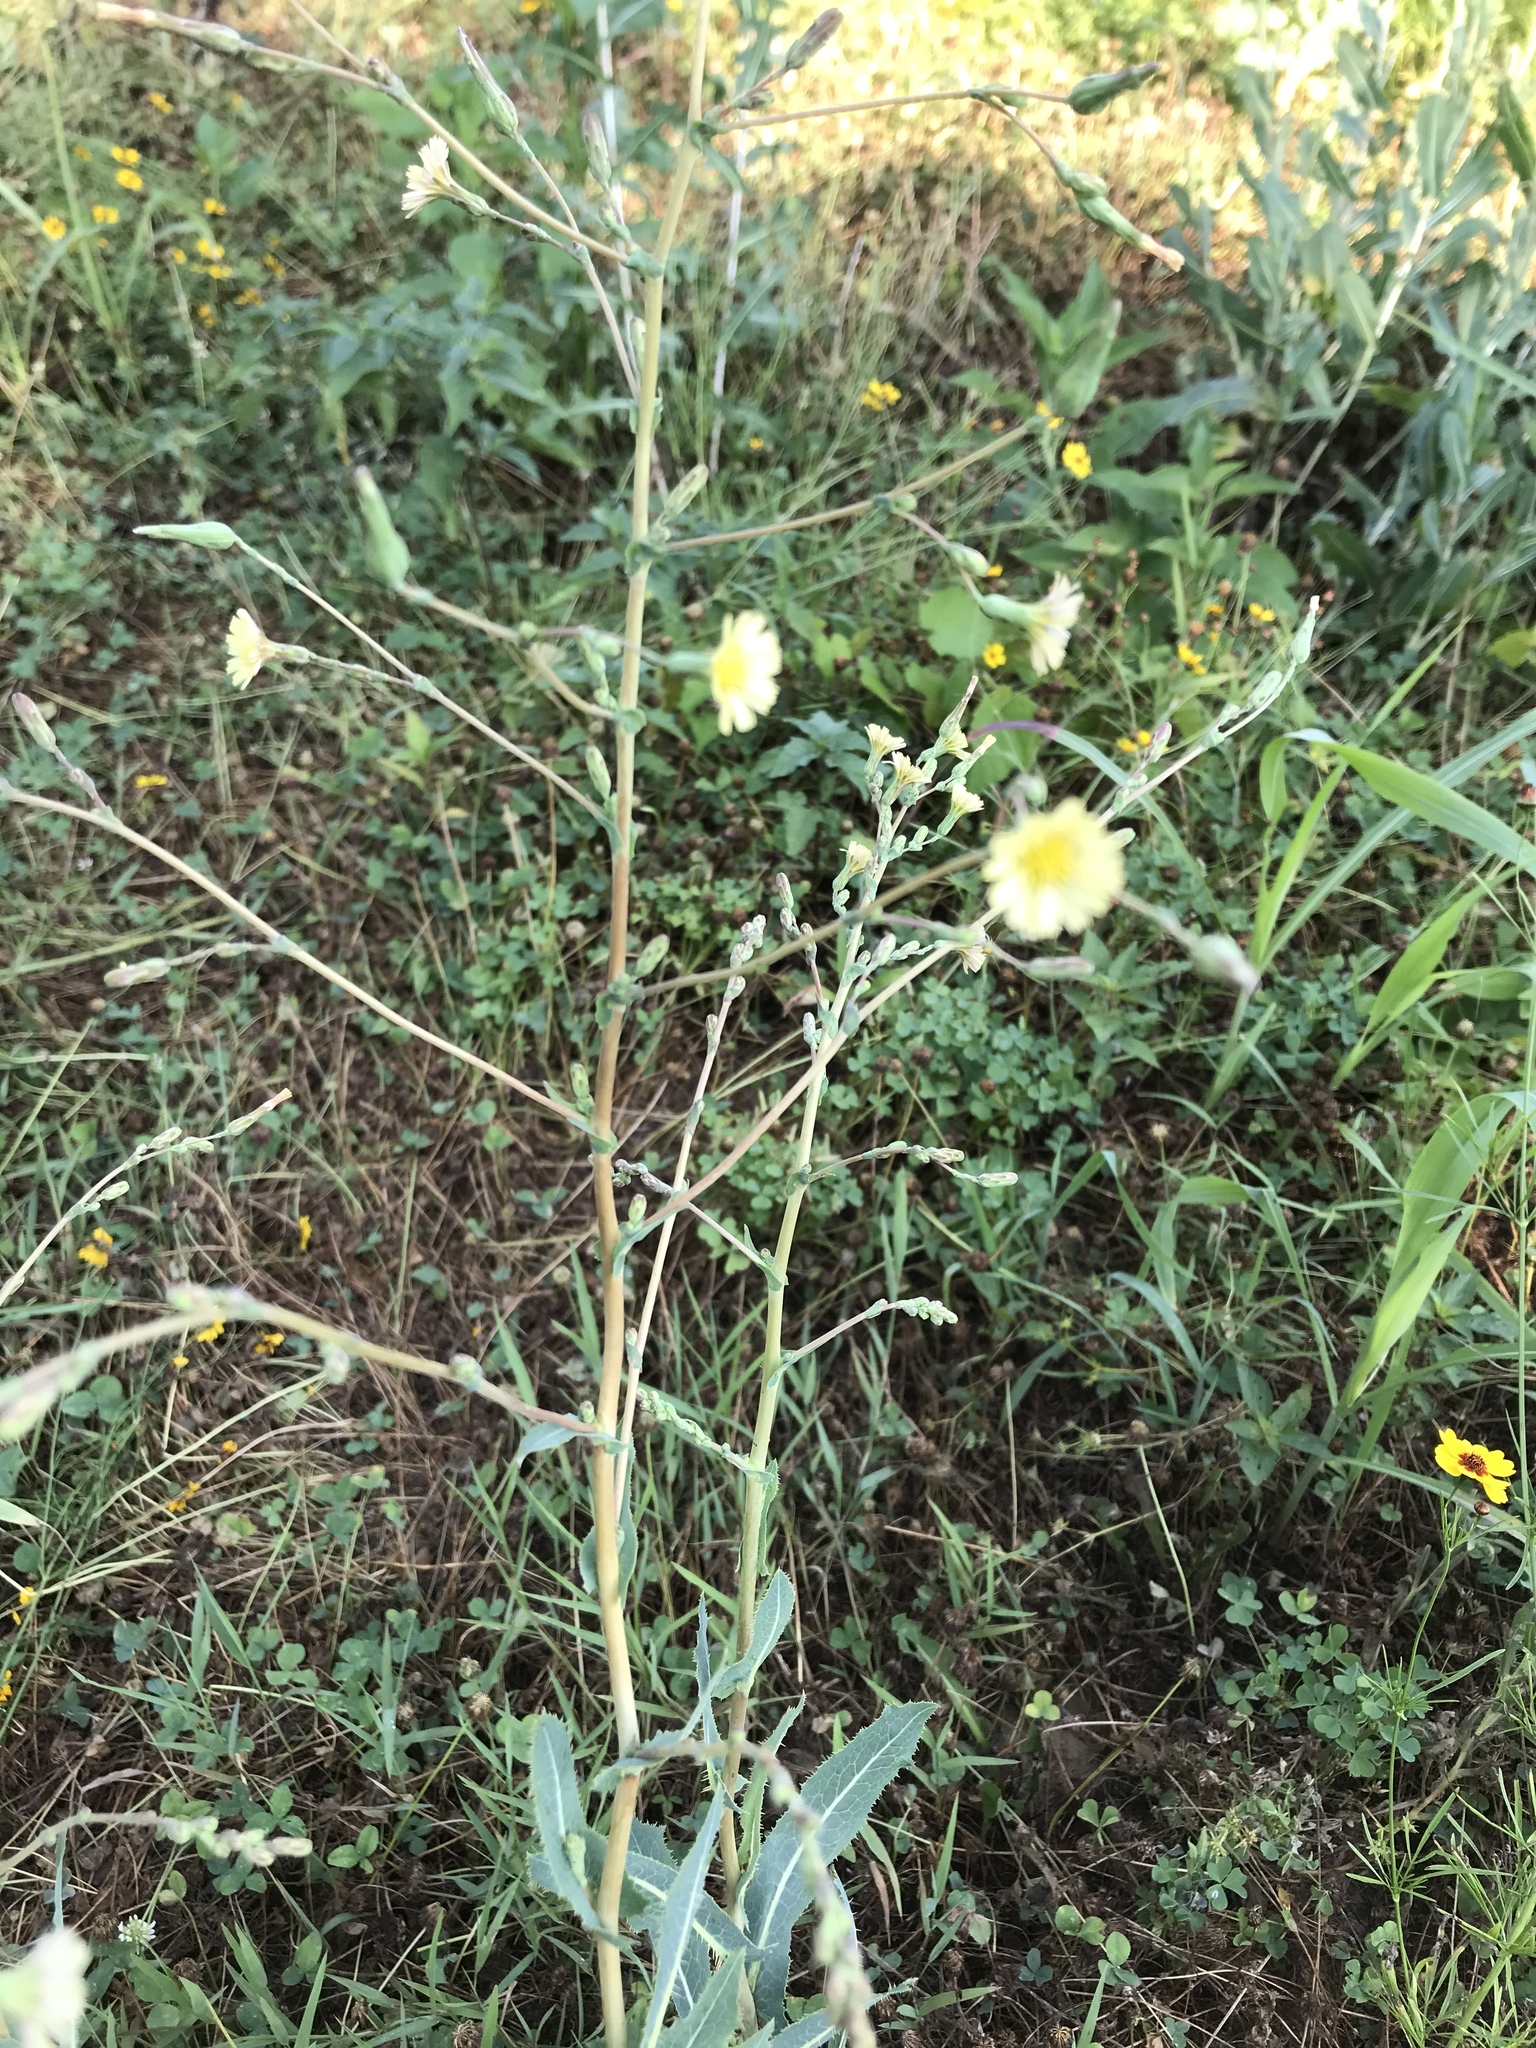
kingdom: Plantae
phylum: Tracheophyta
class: Magnoliopsida
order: Asterales
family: Asteraceae
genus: Lactuca
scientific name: Lactuca serriola
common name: Prickly lettuce
